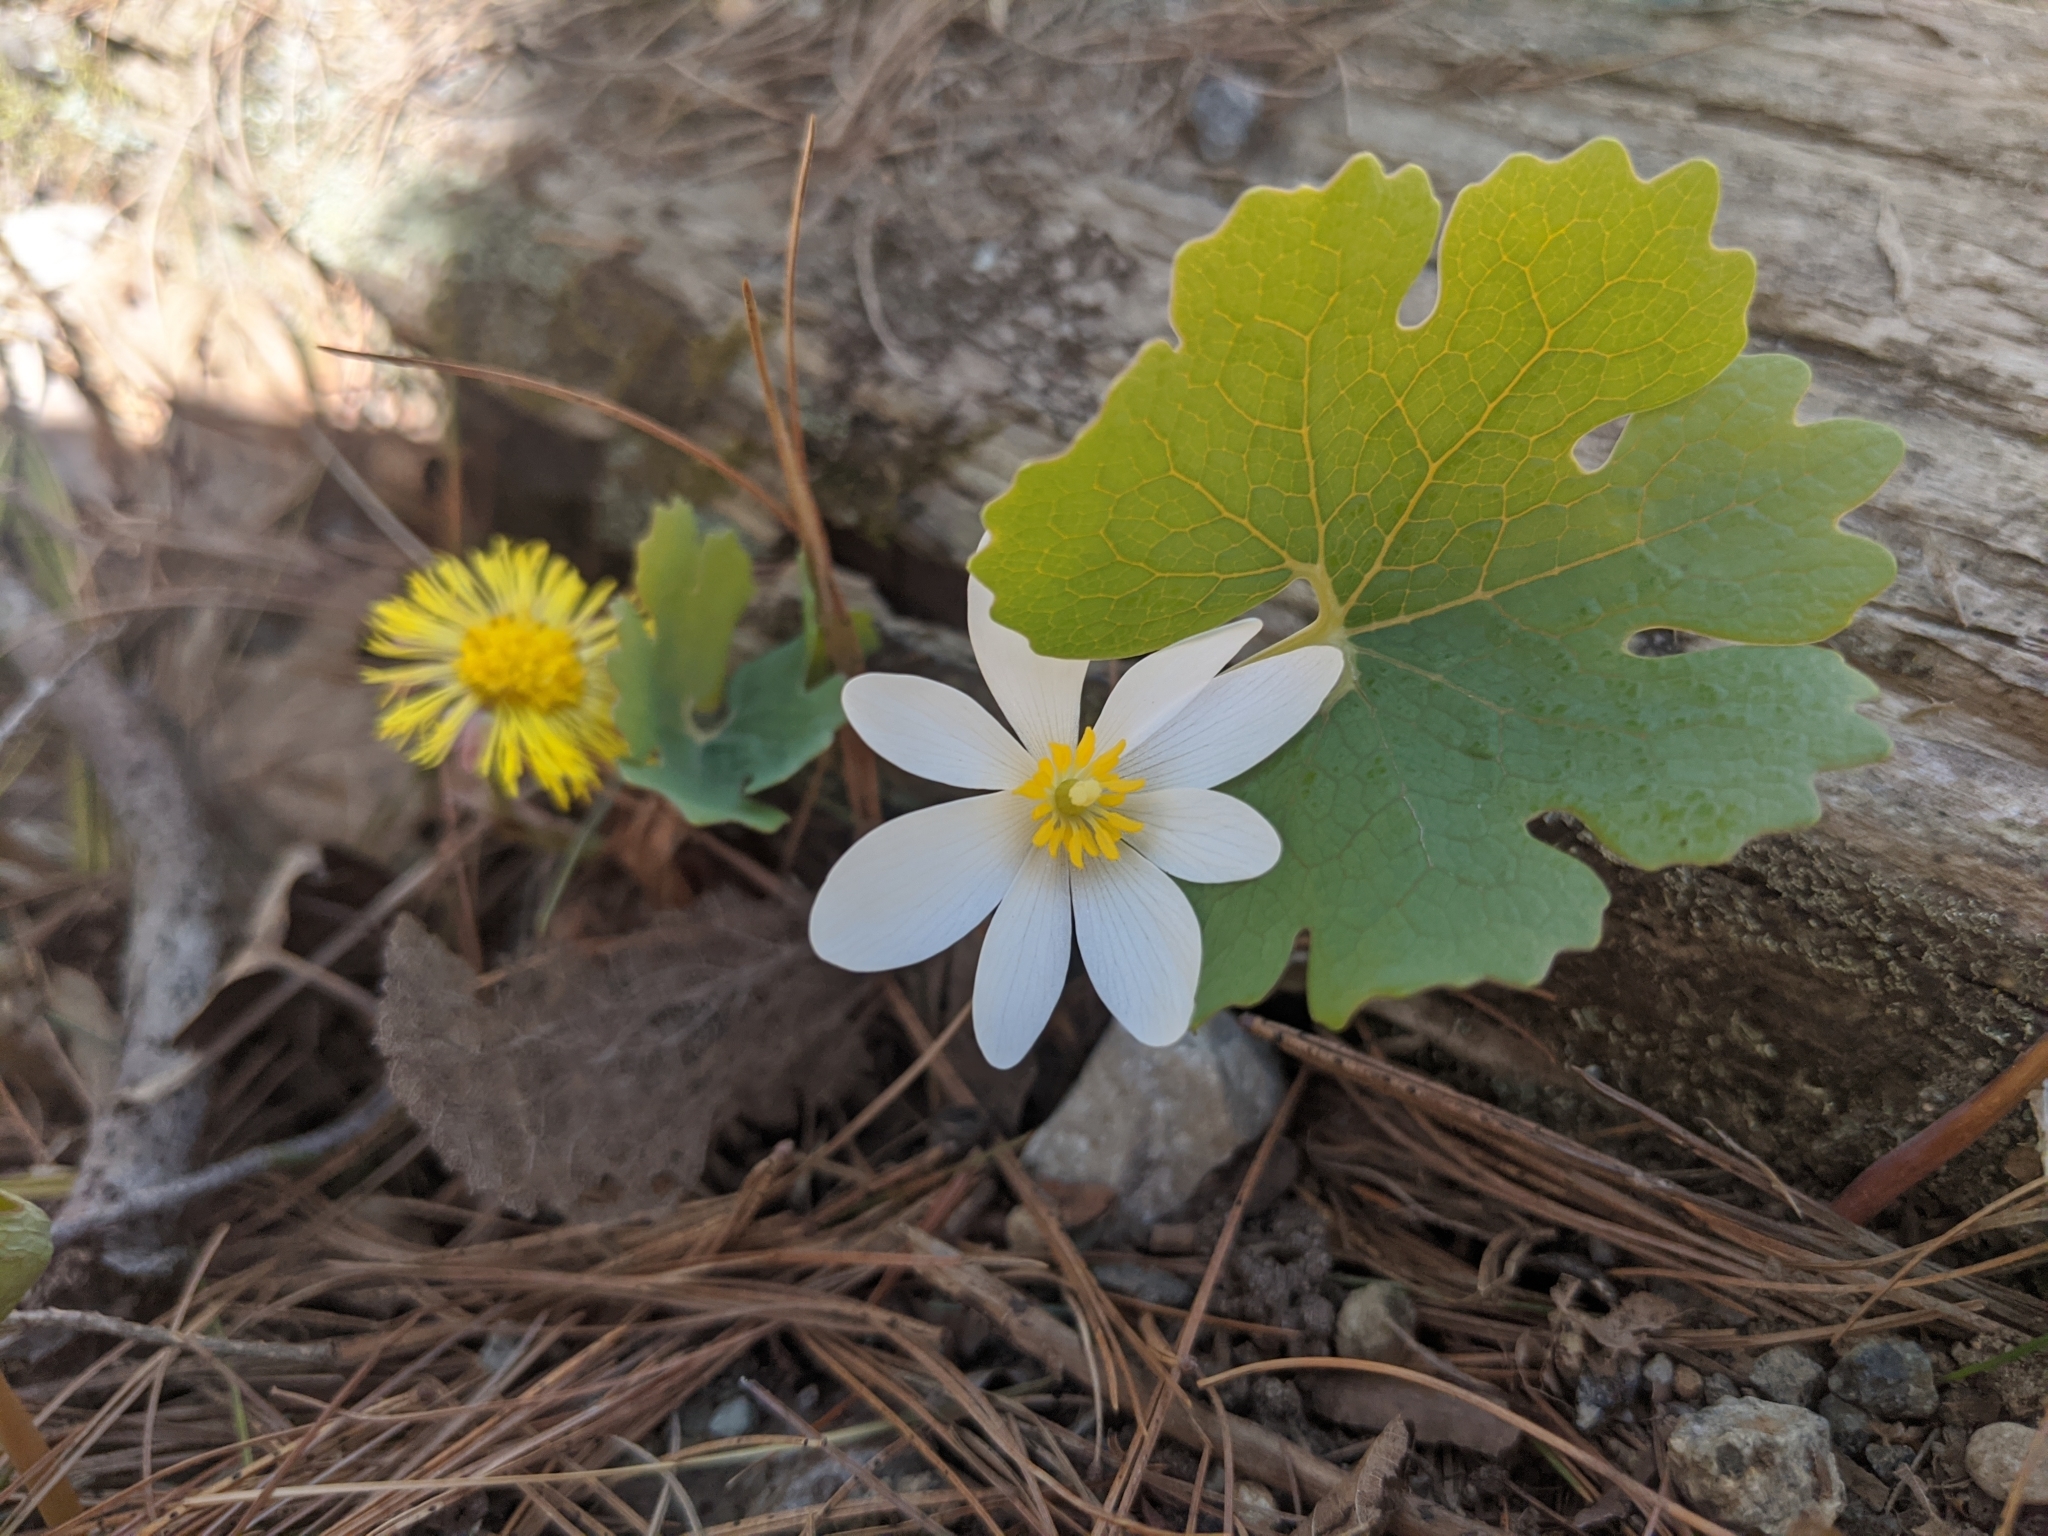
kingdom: Plantae
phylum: Tracheophyta
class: Magnoliopsida
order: Ranunculales
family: Papaveraceae
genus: Sanguinaria
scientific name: Sanguinaria canadensis
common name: Bloodroot
